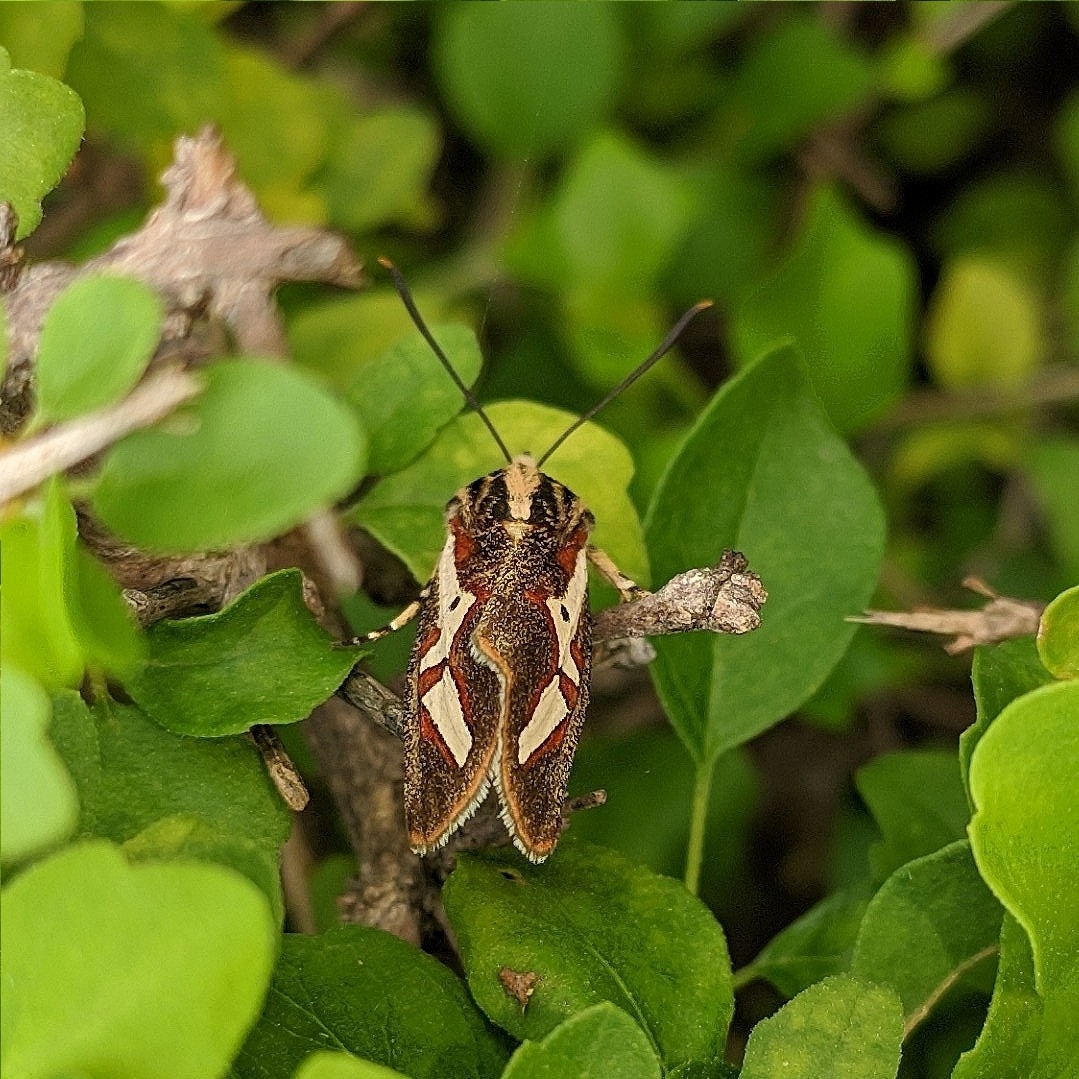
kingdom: Animalia
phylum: Arthropoda
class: Insecta
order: Lepidoptera
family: Noctuidae
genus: Aegocera
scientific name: Aegocera venulia
